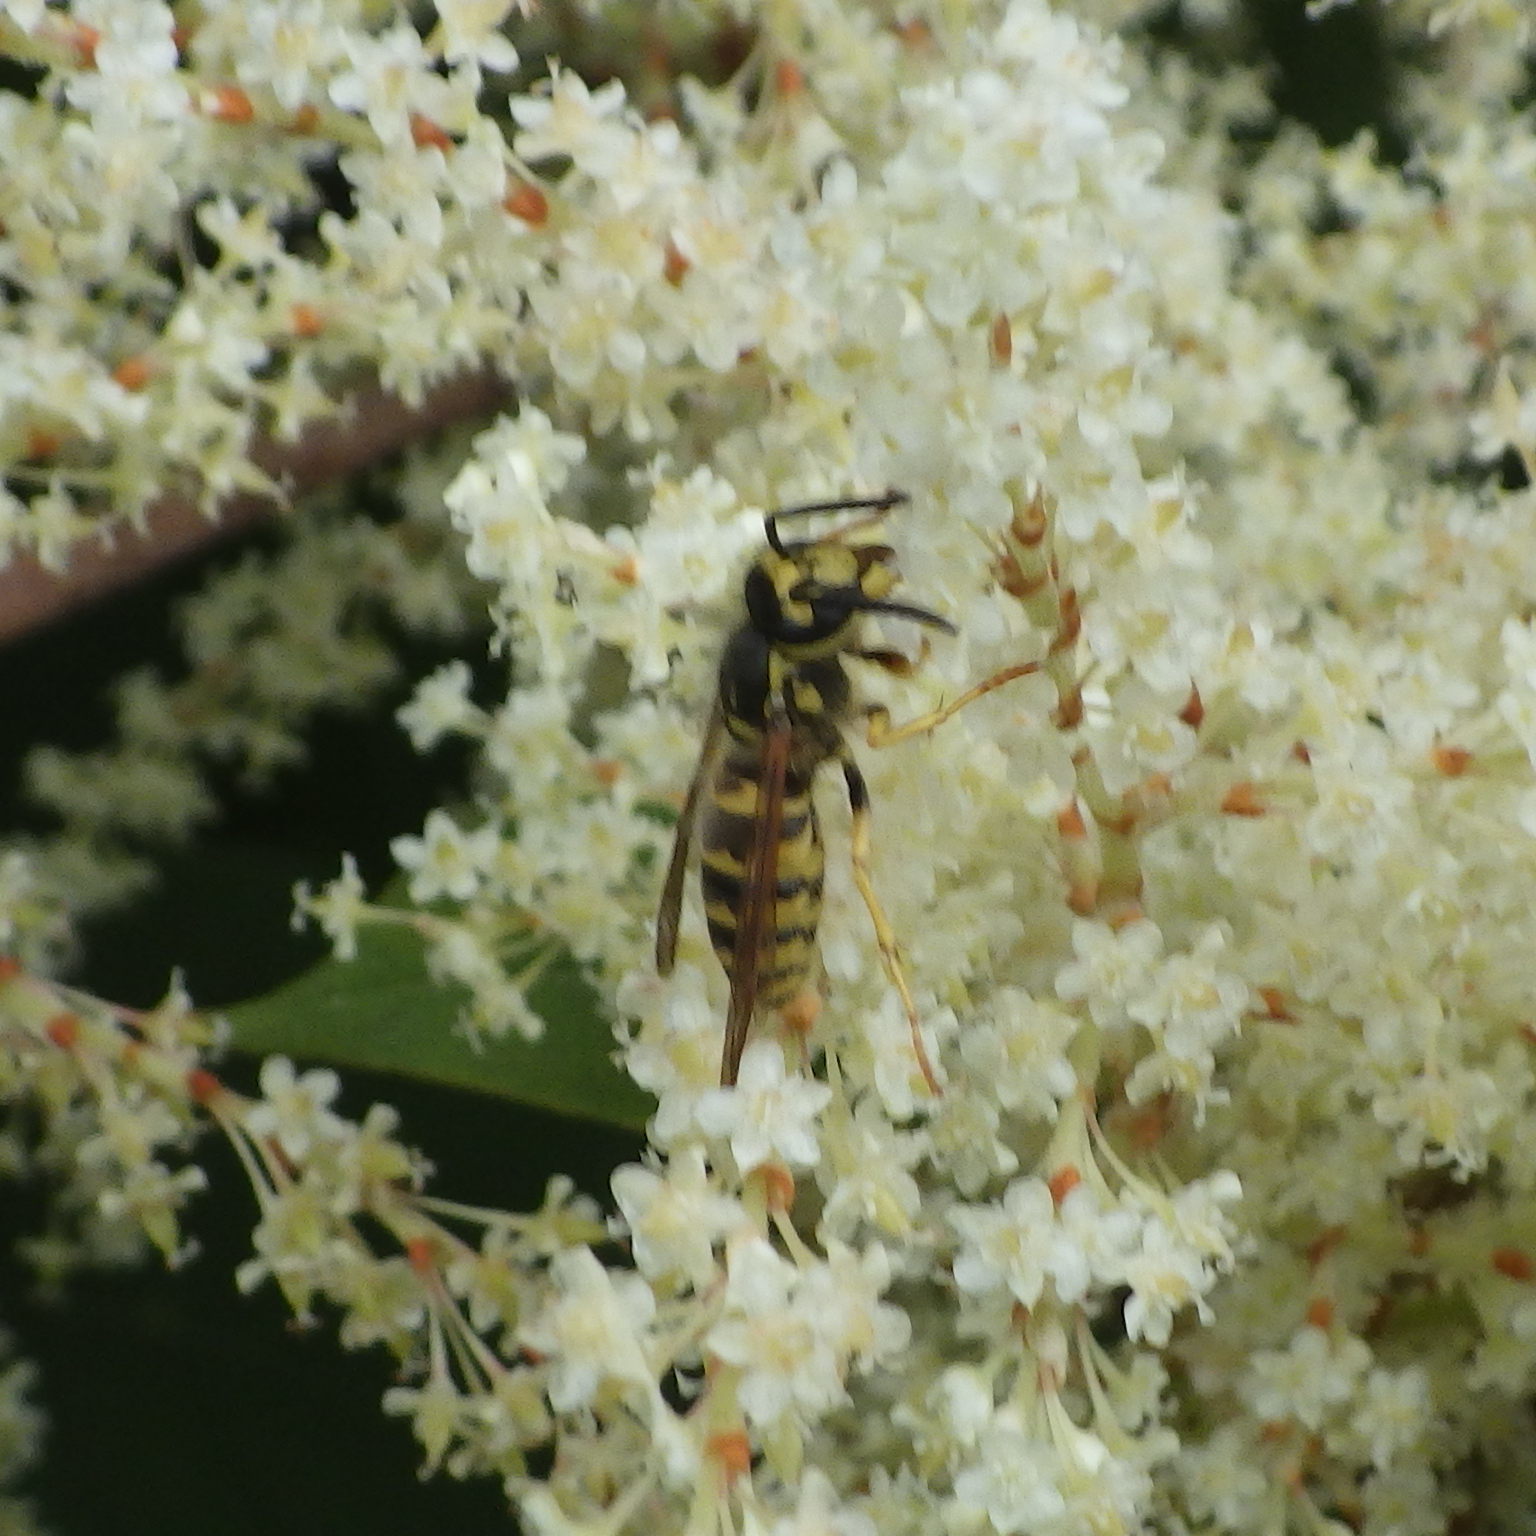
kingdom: Animalia
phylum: Arthropoda
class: Insecta
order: Hymenoptera
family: Vespidae
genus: Vespula
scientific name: Vespula flavopilosa
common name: Downy yellowjacket
